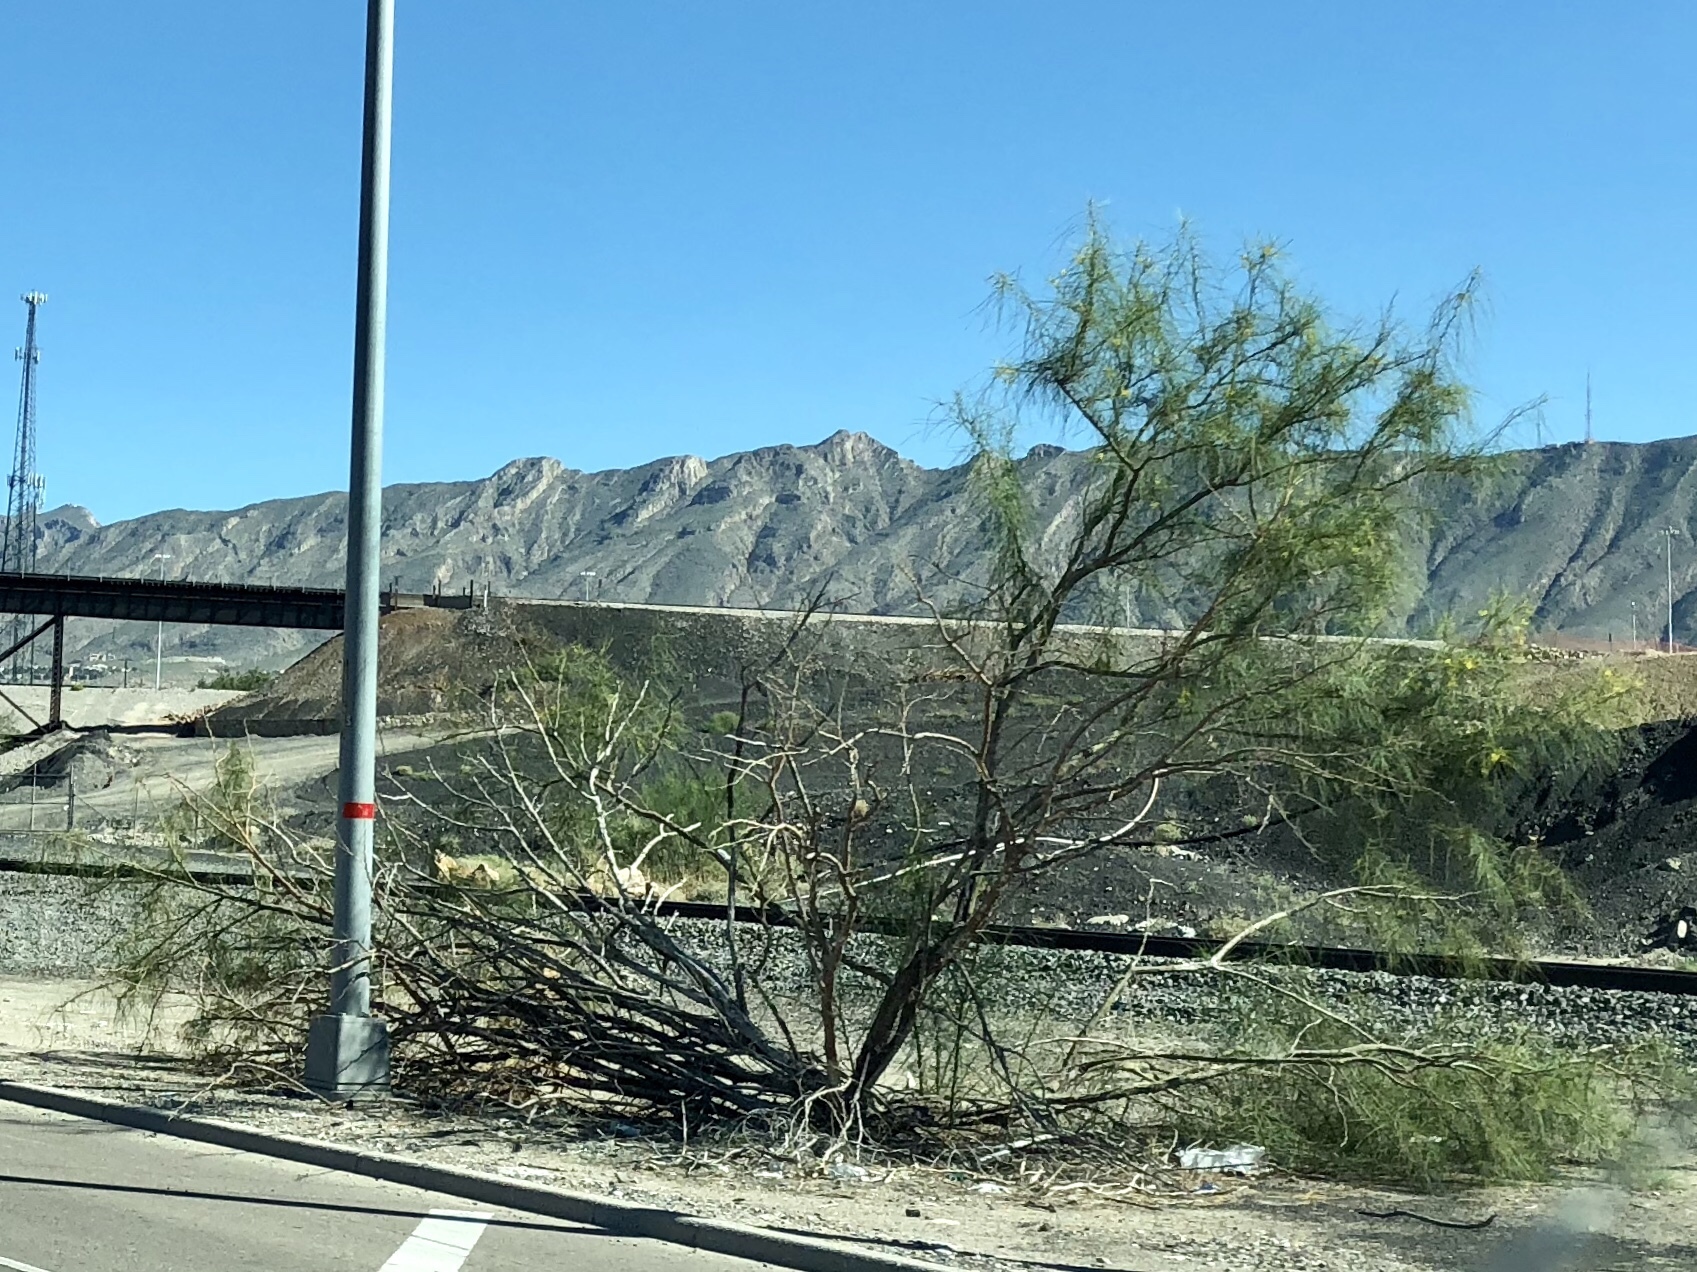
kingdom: Plantae
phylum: Tracheophyta
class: Magnoliopsida
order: Fabales
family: Fabaceae
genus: Parkinsonia
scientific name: Parkinsonia aculeata
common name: Jerusalem thorn
